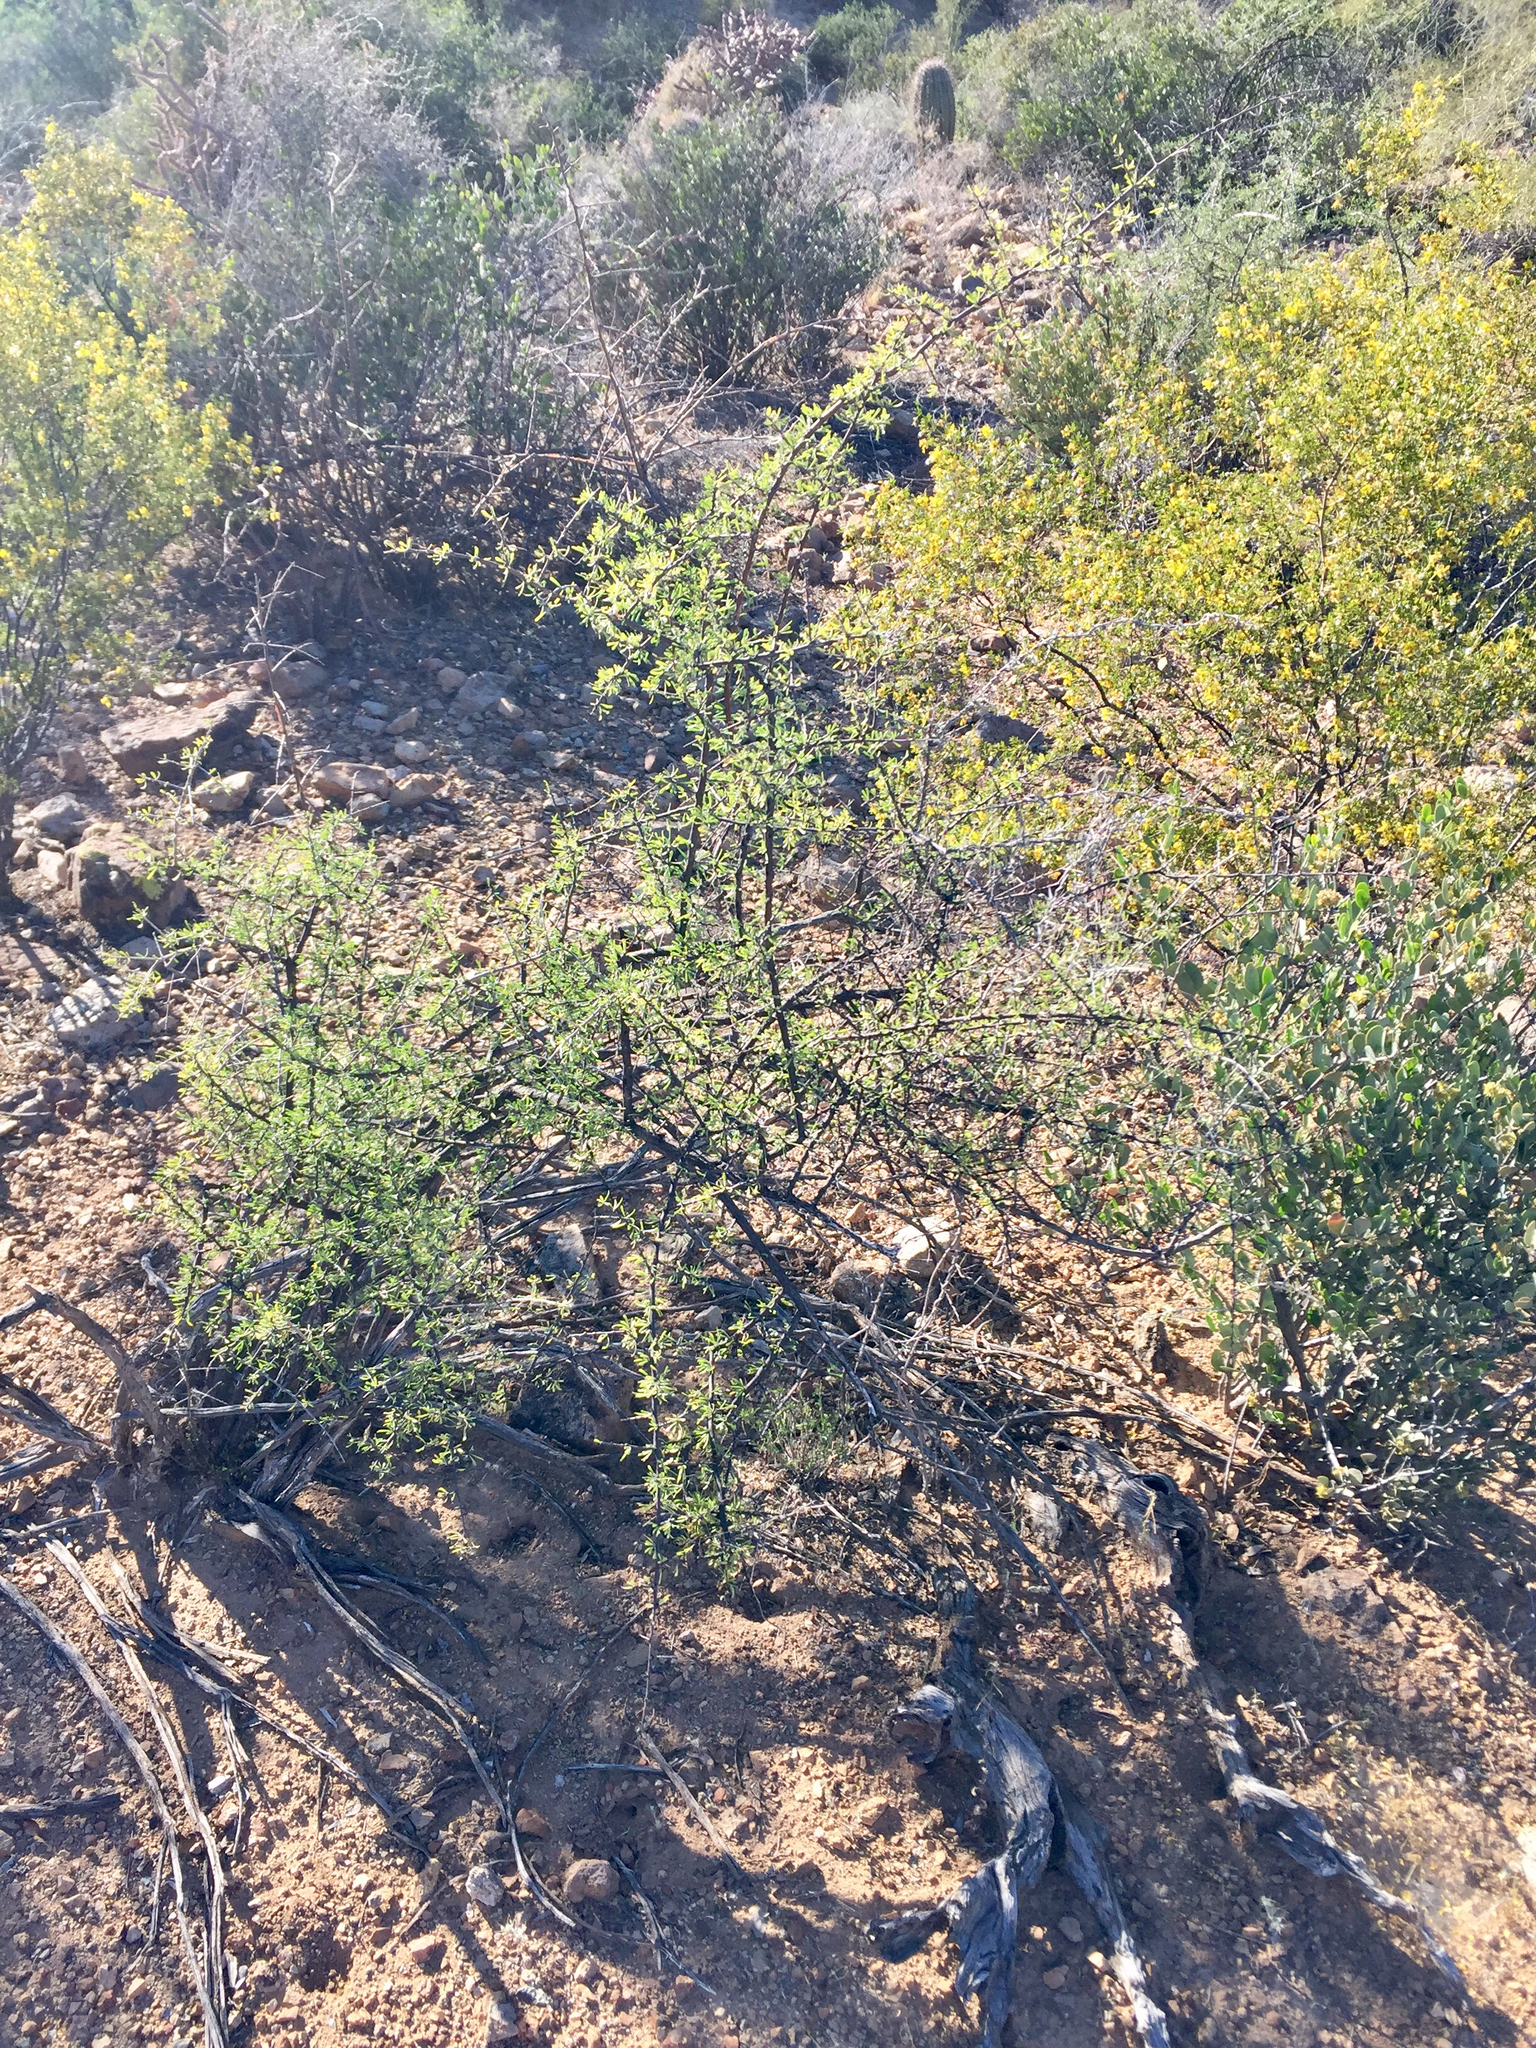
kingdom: Plantae
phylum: Tracheophyta
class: Magnoliopsida
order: Solanales
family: Solanaceae
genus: Lycium
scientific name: Lycium berlandieri
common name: Berlandier wolfberry
